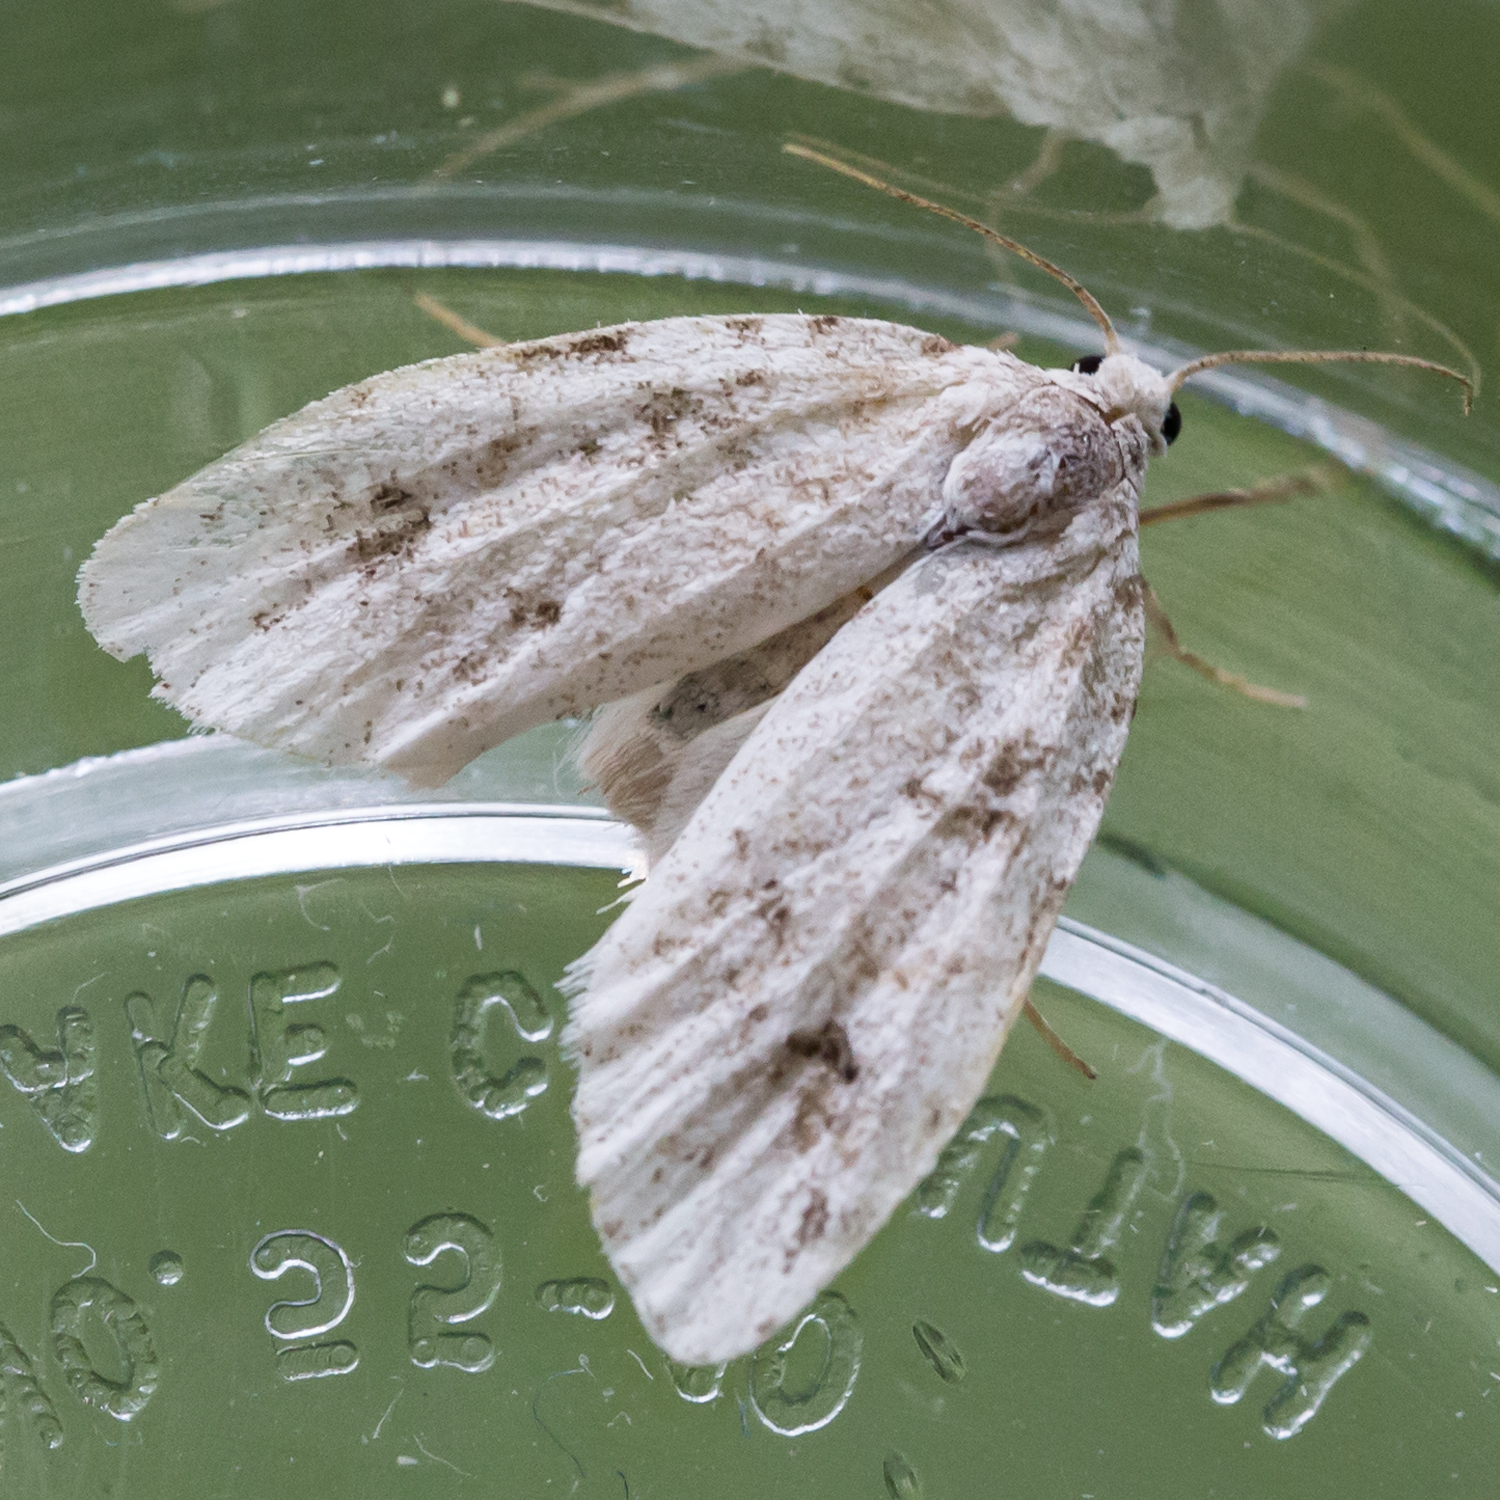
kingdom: Animalia
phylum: Arthropoda
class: Insecta
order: Lepidoptera
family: Erebidae
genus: Clemensia
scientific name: Clemensia albata
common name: Little white lichen moth
